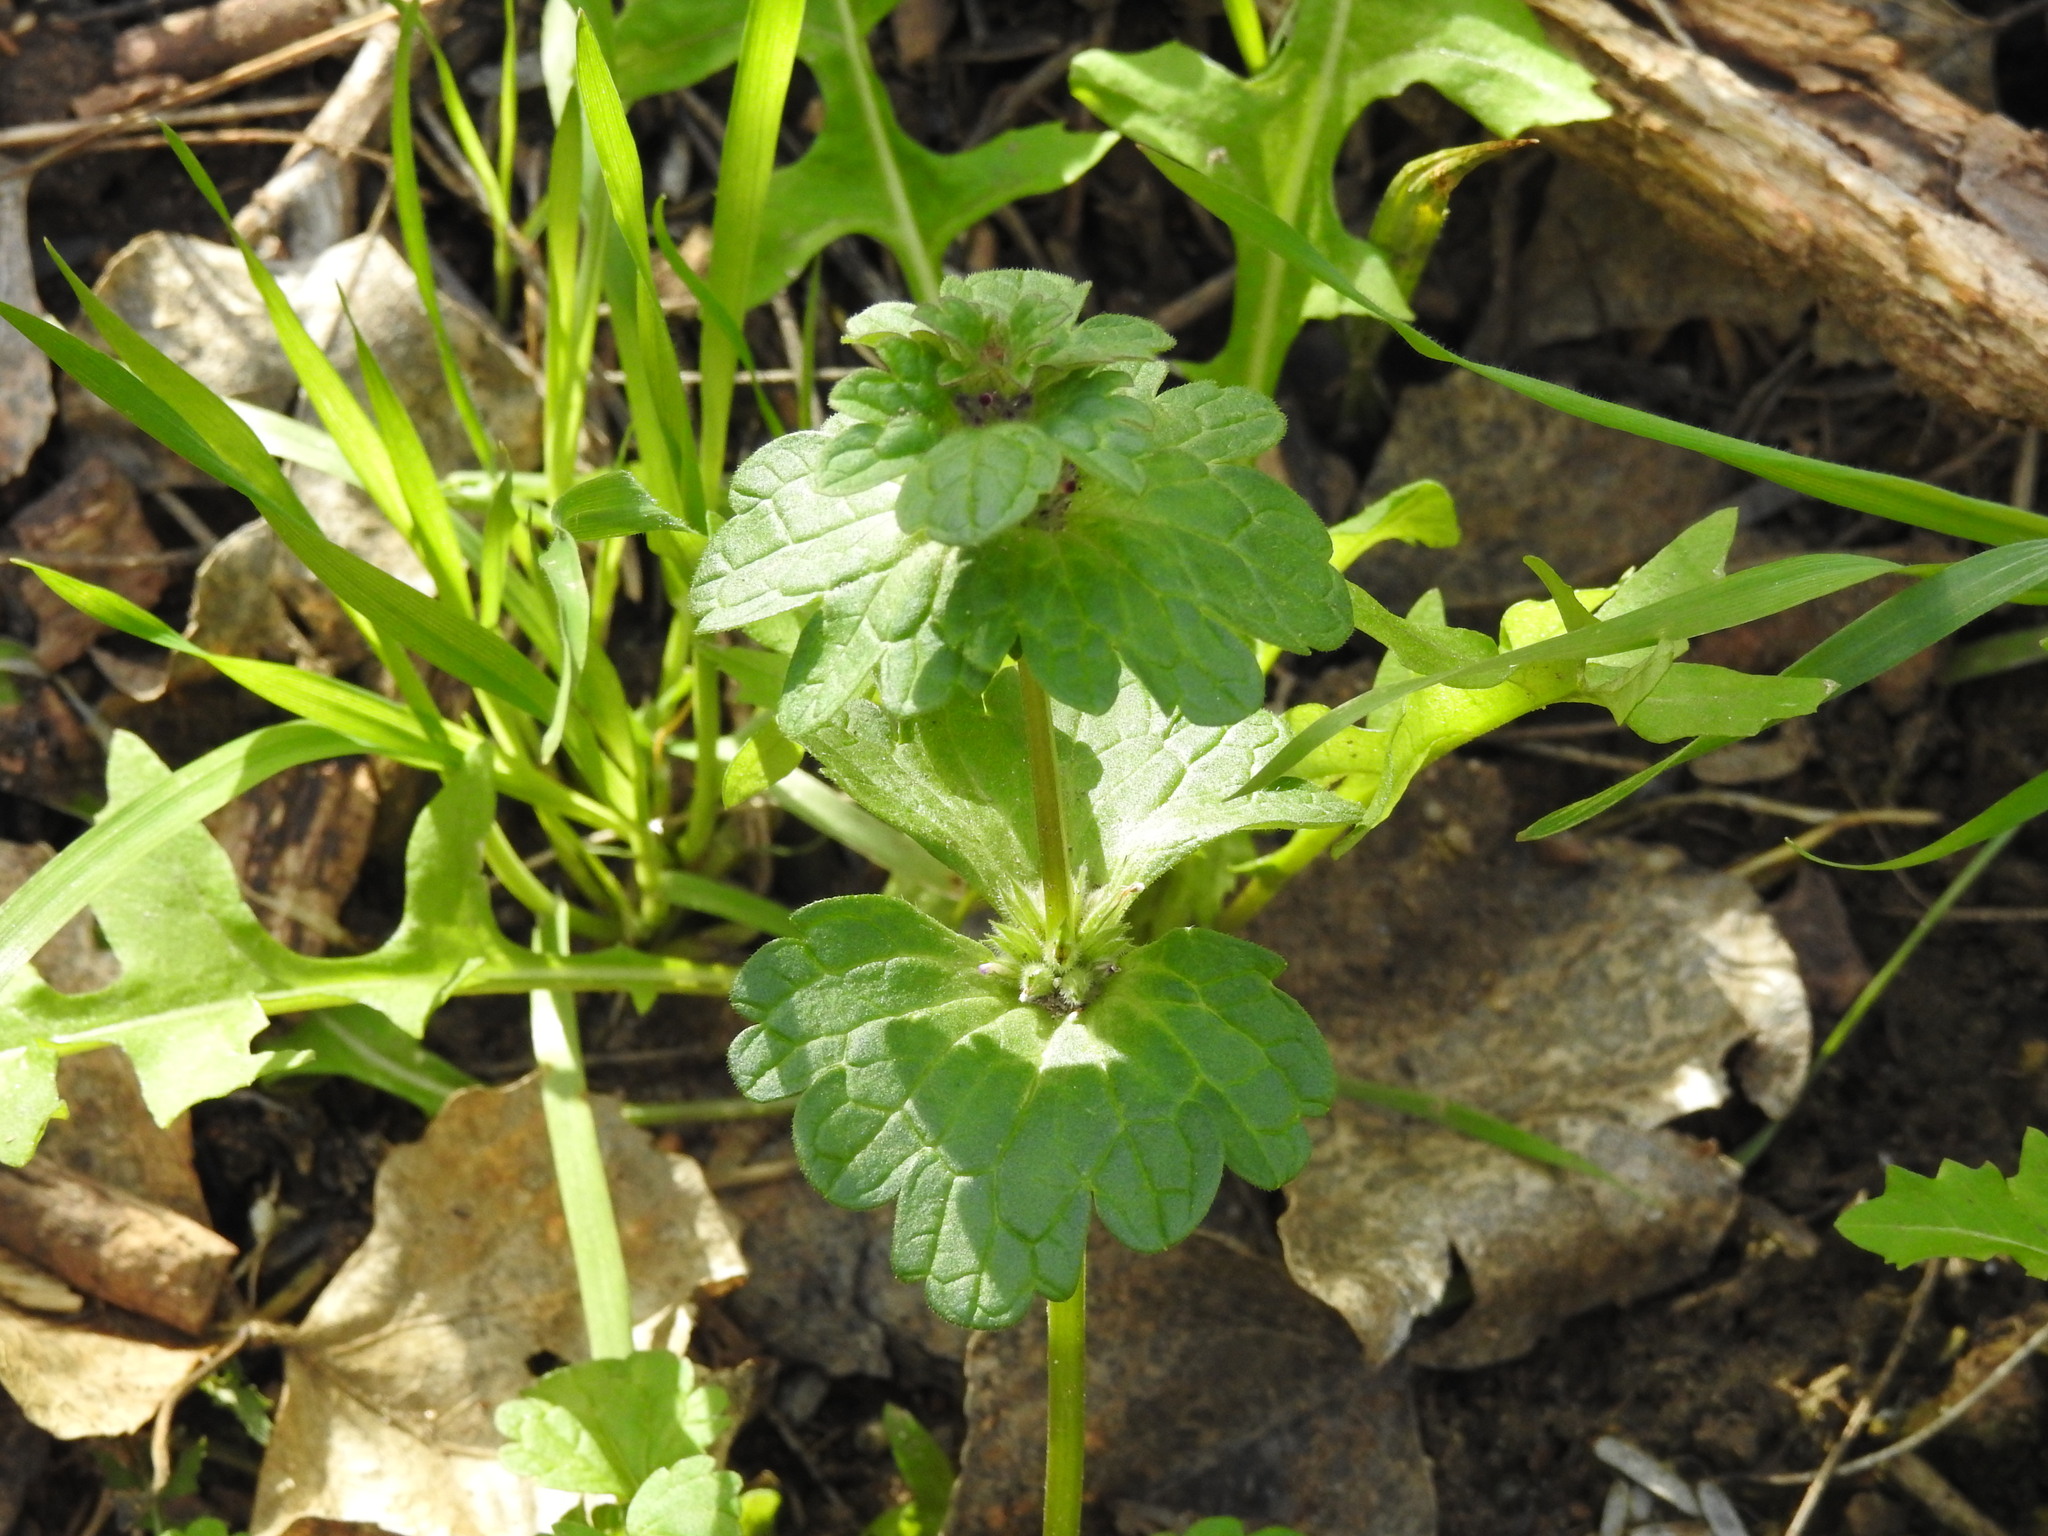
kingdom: Plantae
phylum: Tracheophyta
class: Magnoliopsida
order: Lamiales
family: Lamiaceae
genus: Lamium
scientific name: Lamium amplexicaule
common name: Henbit dead-nettle
